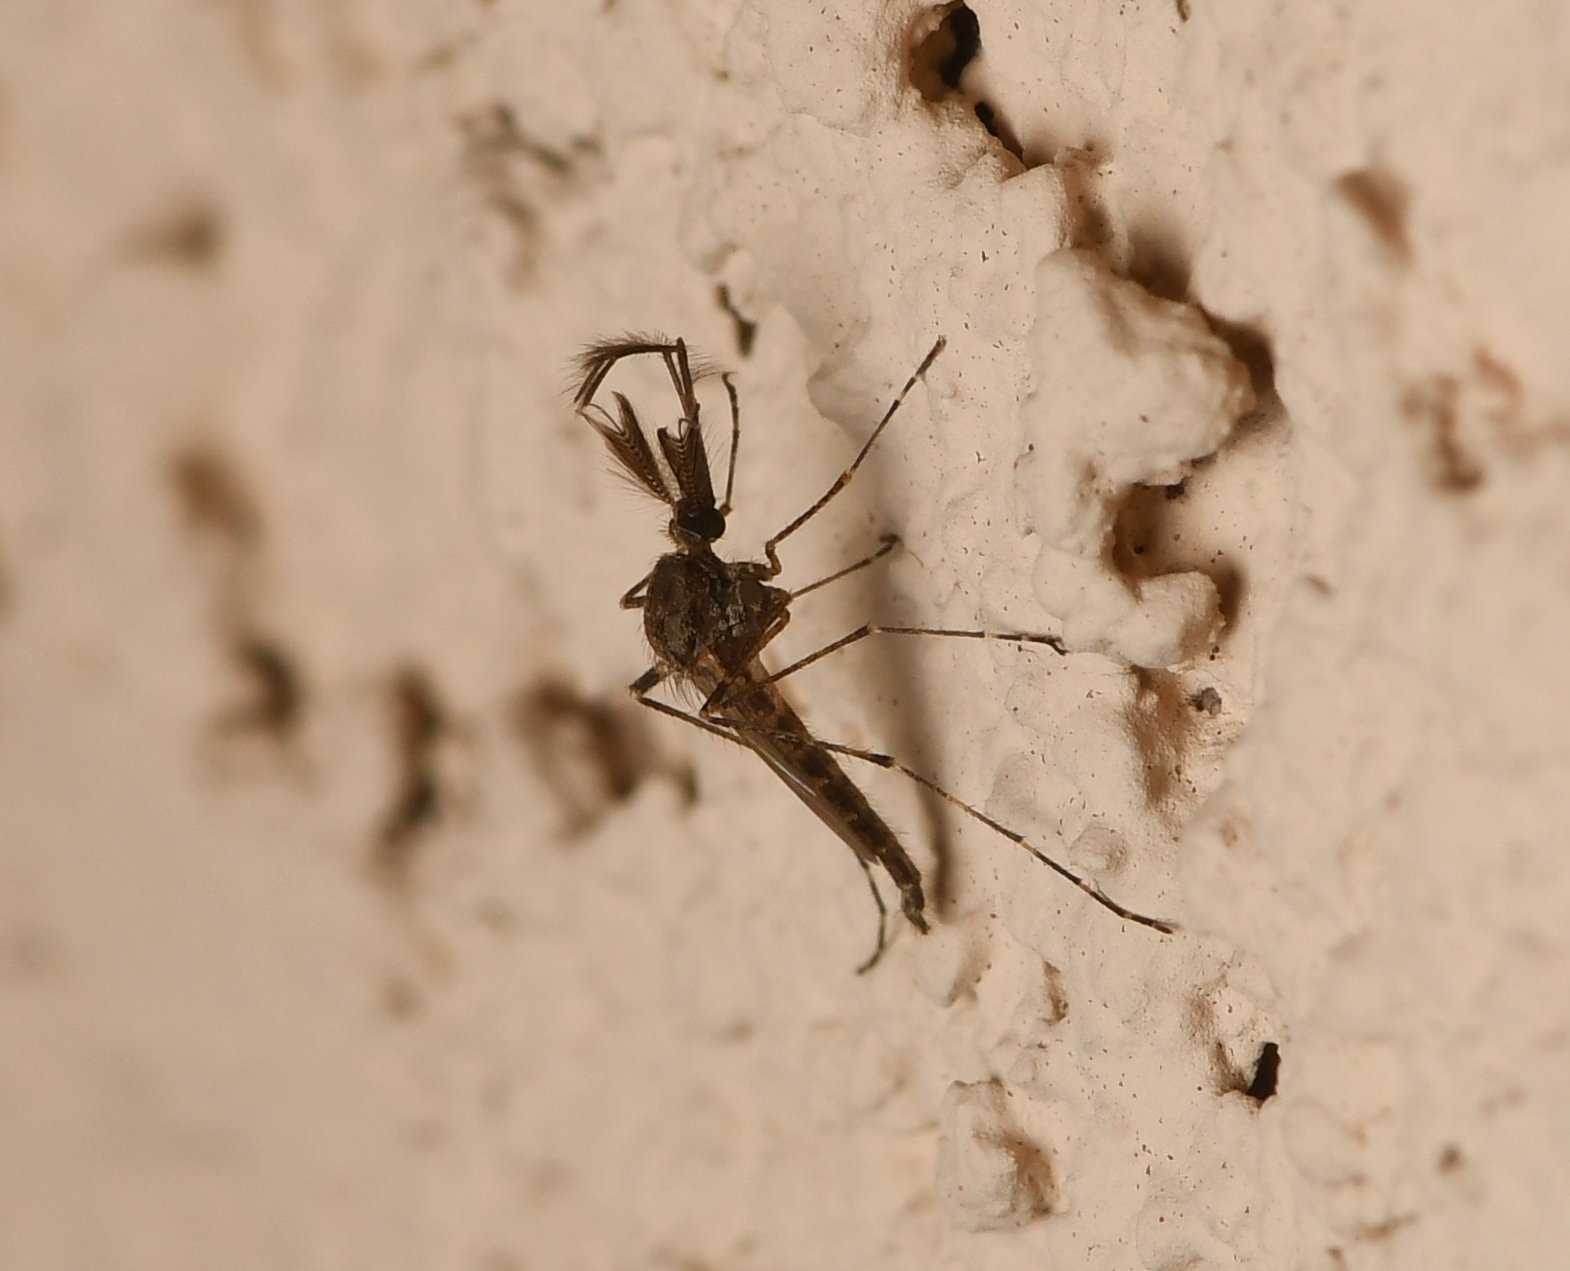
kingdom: Animalia
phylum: Arthropoda
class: Insecta
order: Diptera
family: Culicidae
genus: Psorophora
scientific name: Psorophora columbiae
